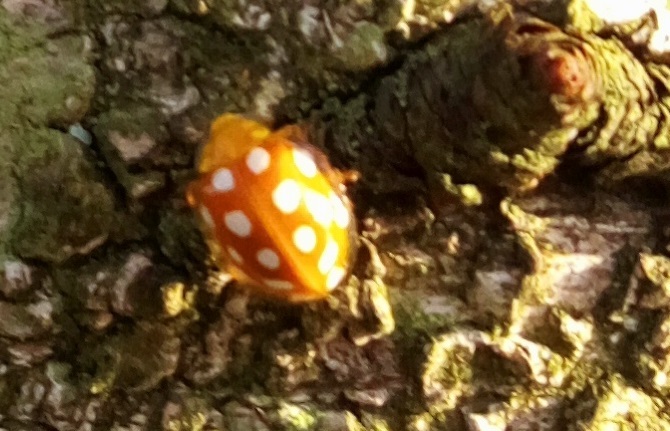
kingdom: Animalia
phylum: Arthropoda
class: Insecta
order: Coleoptera
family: Coccinellidae
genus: Halyzia
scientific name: Halyzia sedecimguttata
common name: Orange ladybird
